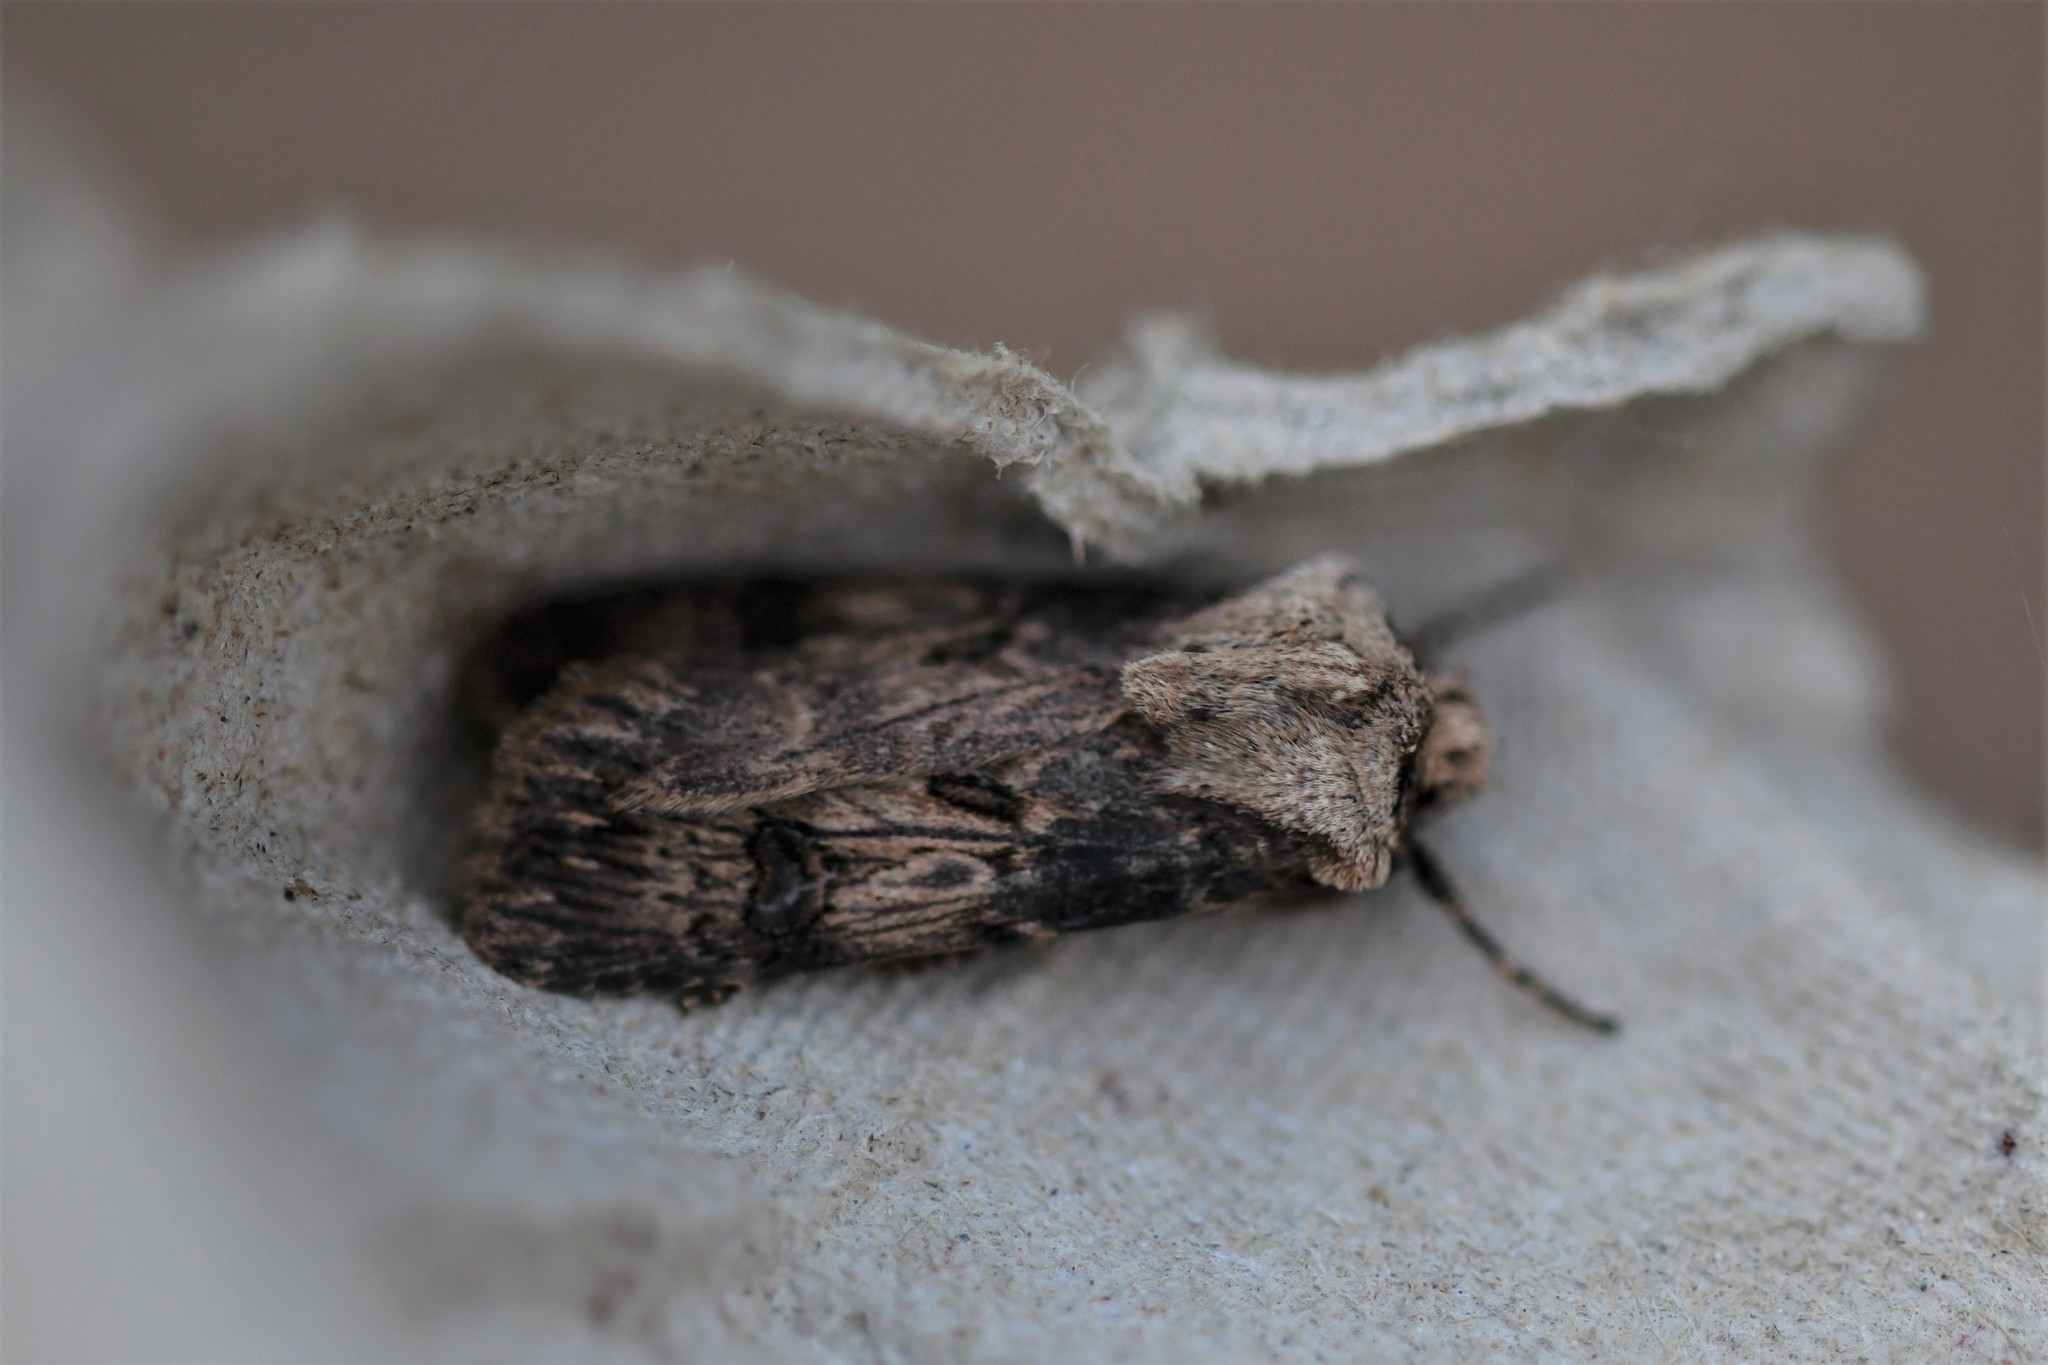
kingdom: Animalia
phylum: Arthropoda
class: Insecta
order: Lepidoptera
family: Noctuidae
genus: Agrotis
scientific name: Agrotis puta
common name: Shuttle-shaped dart
